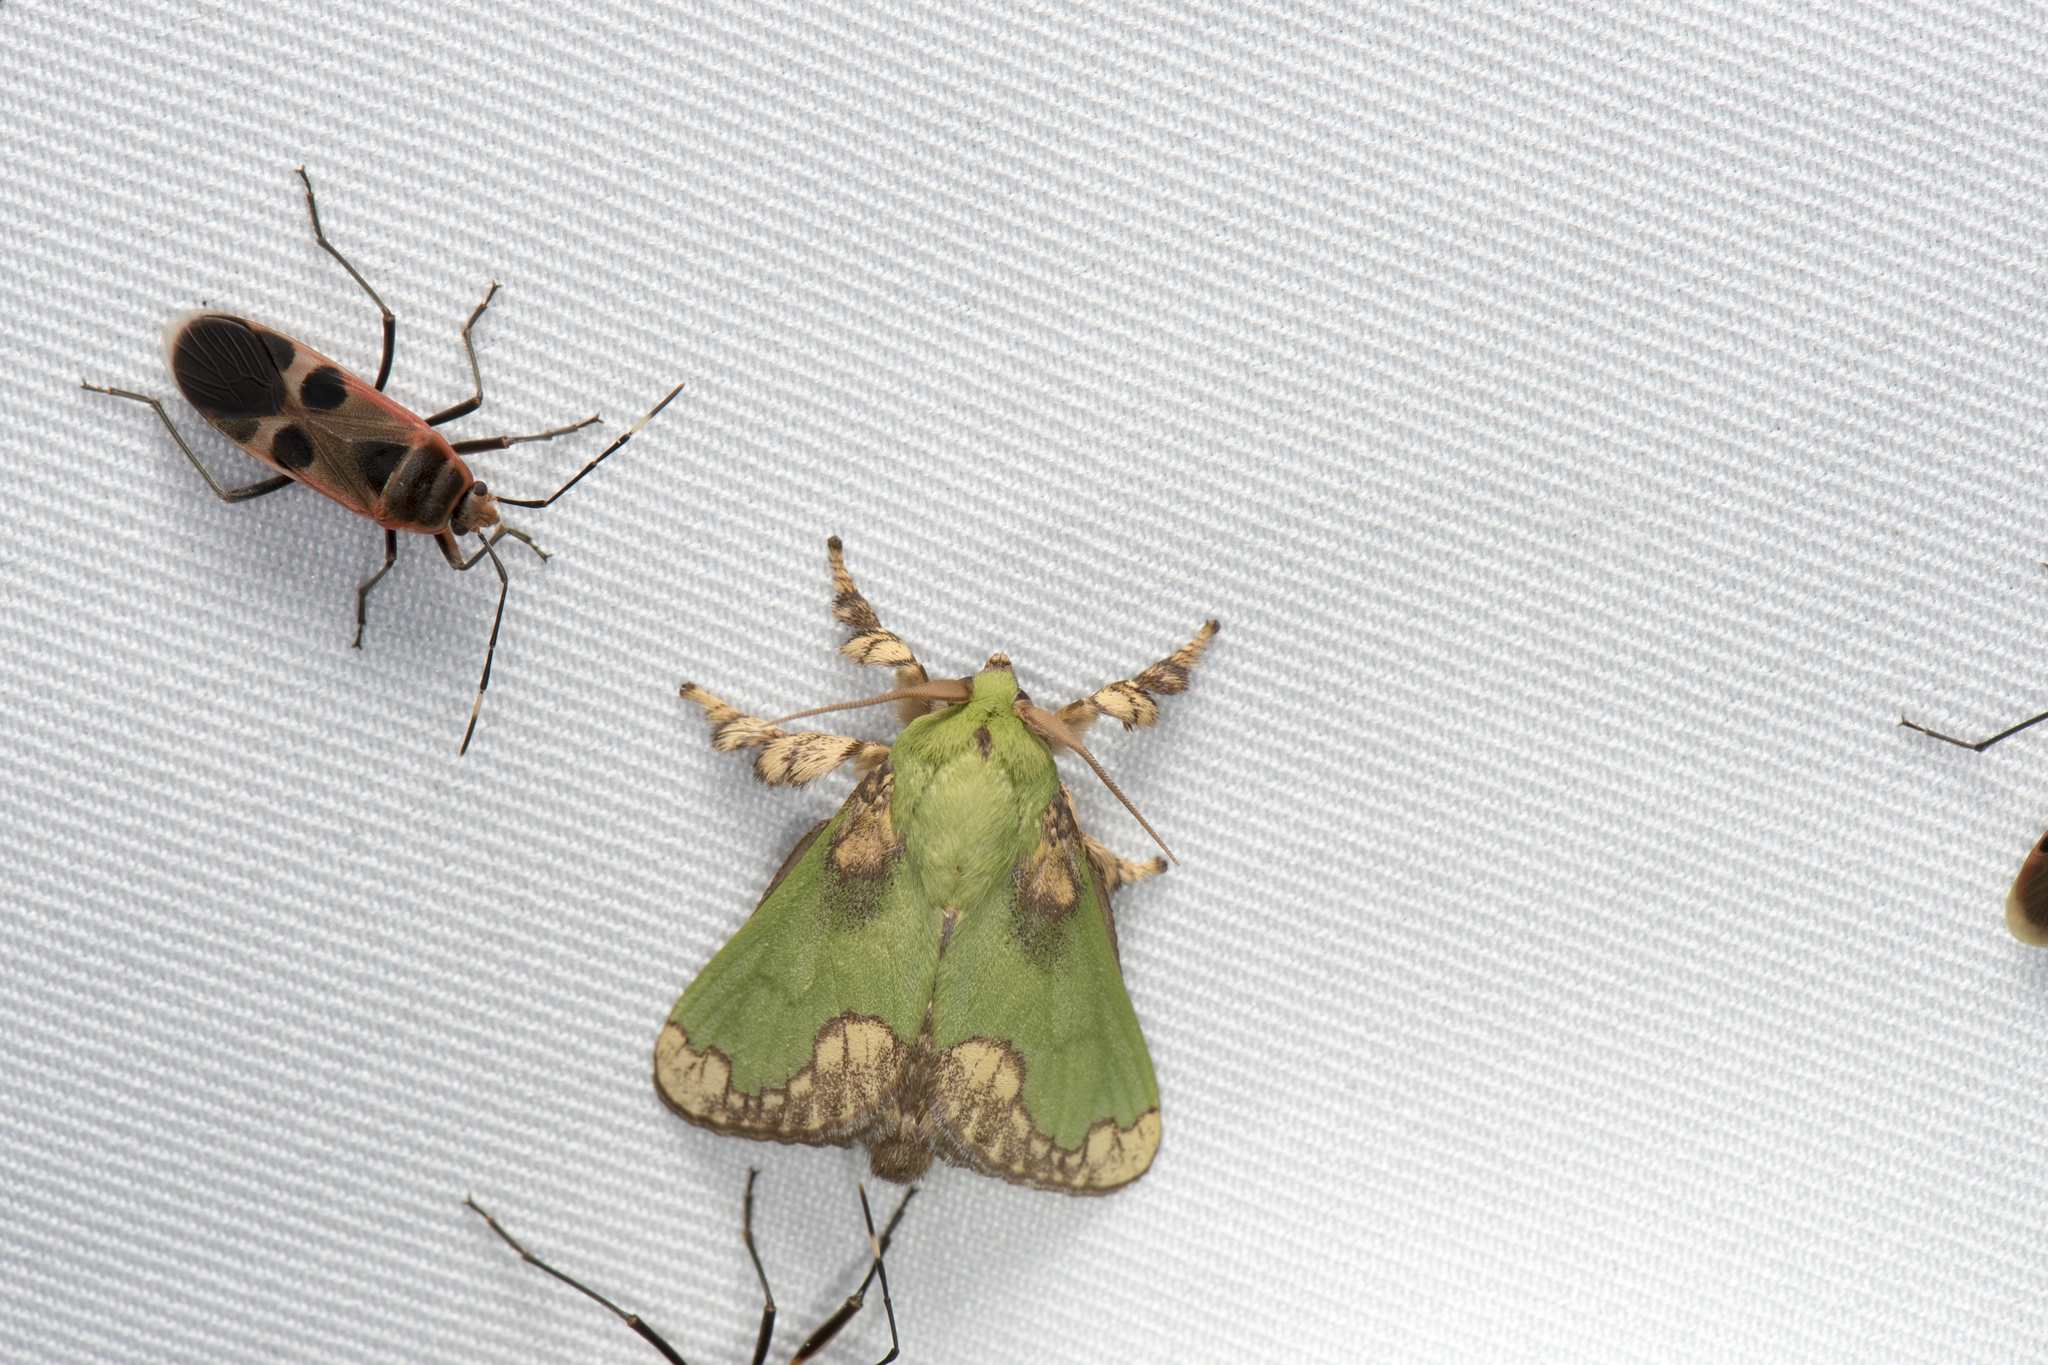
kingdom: Animalia
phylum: Arthropoda
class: Insecta
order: Lepidoptera
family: Limacodidae
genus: Parasa
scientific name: Parasa pastoralis
